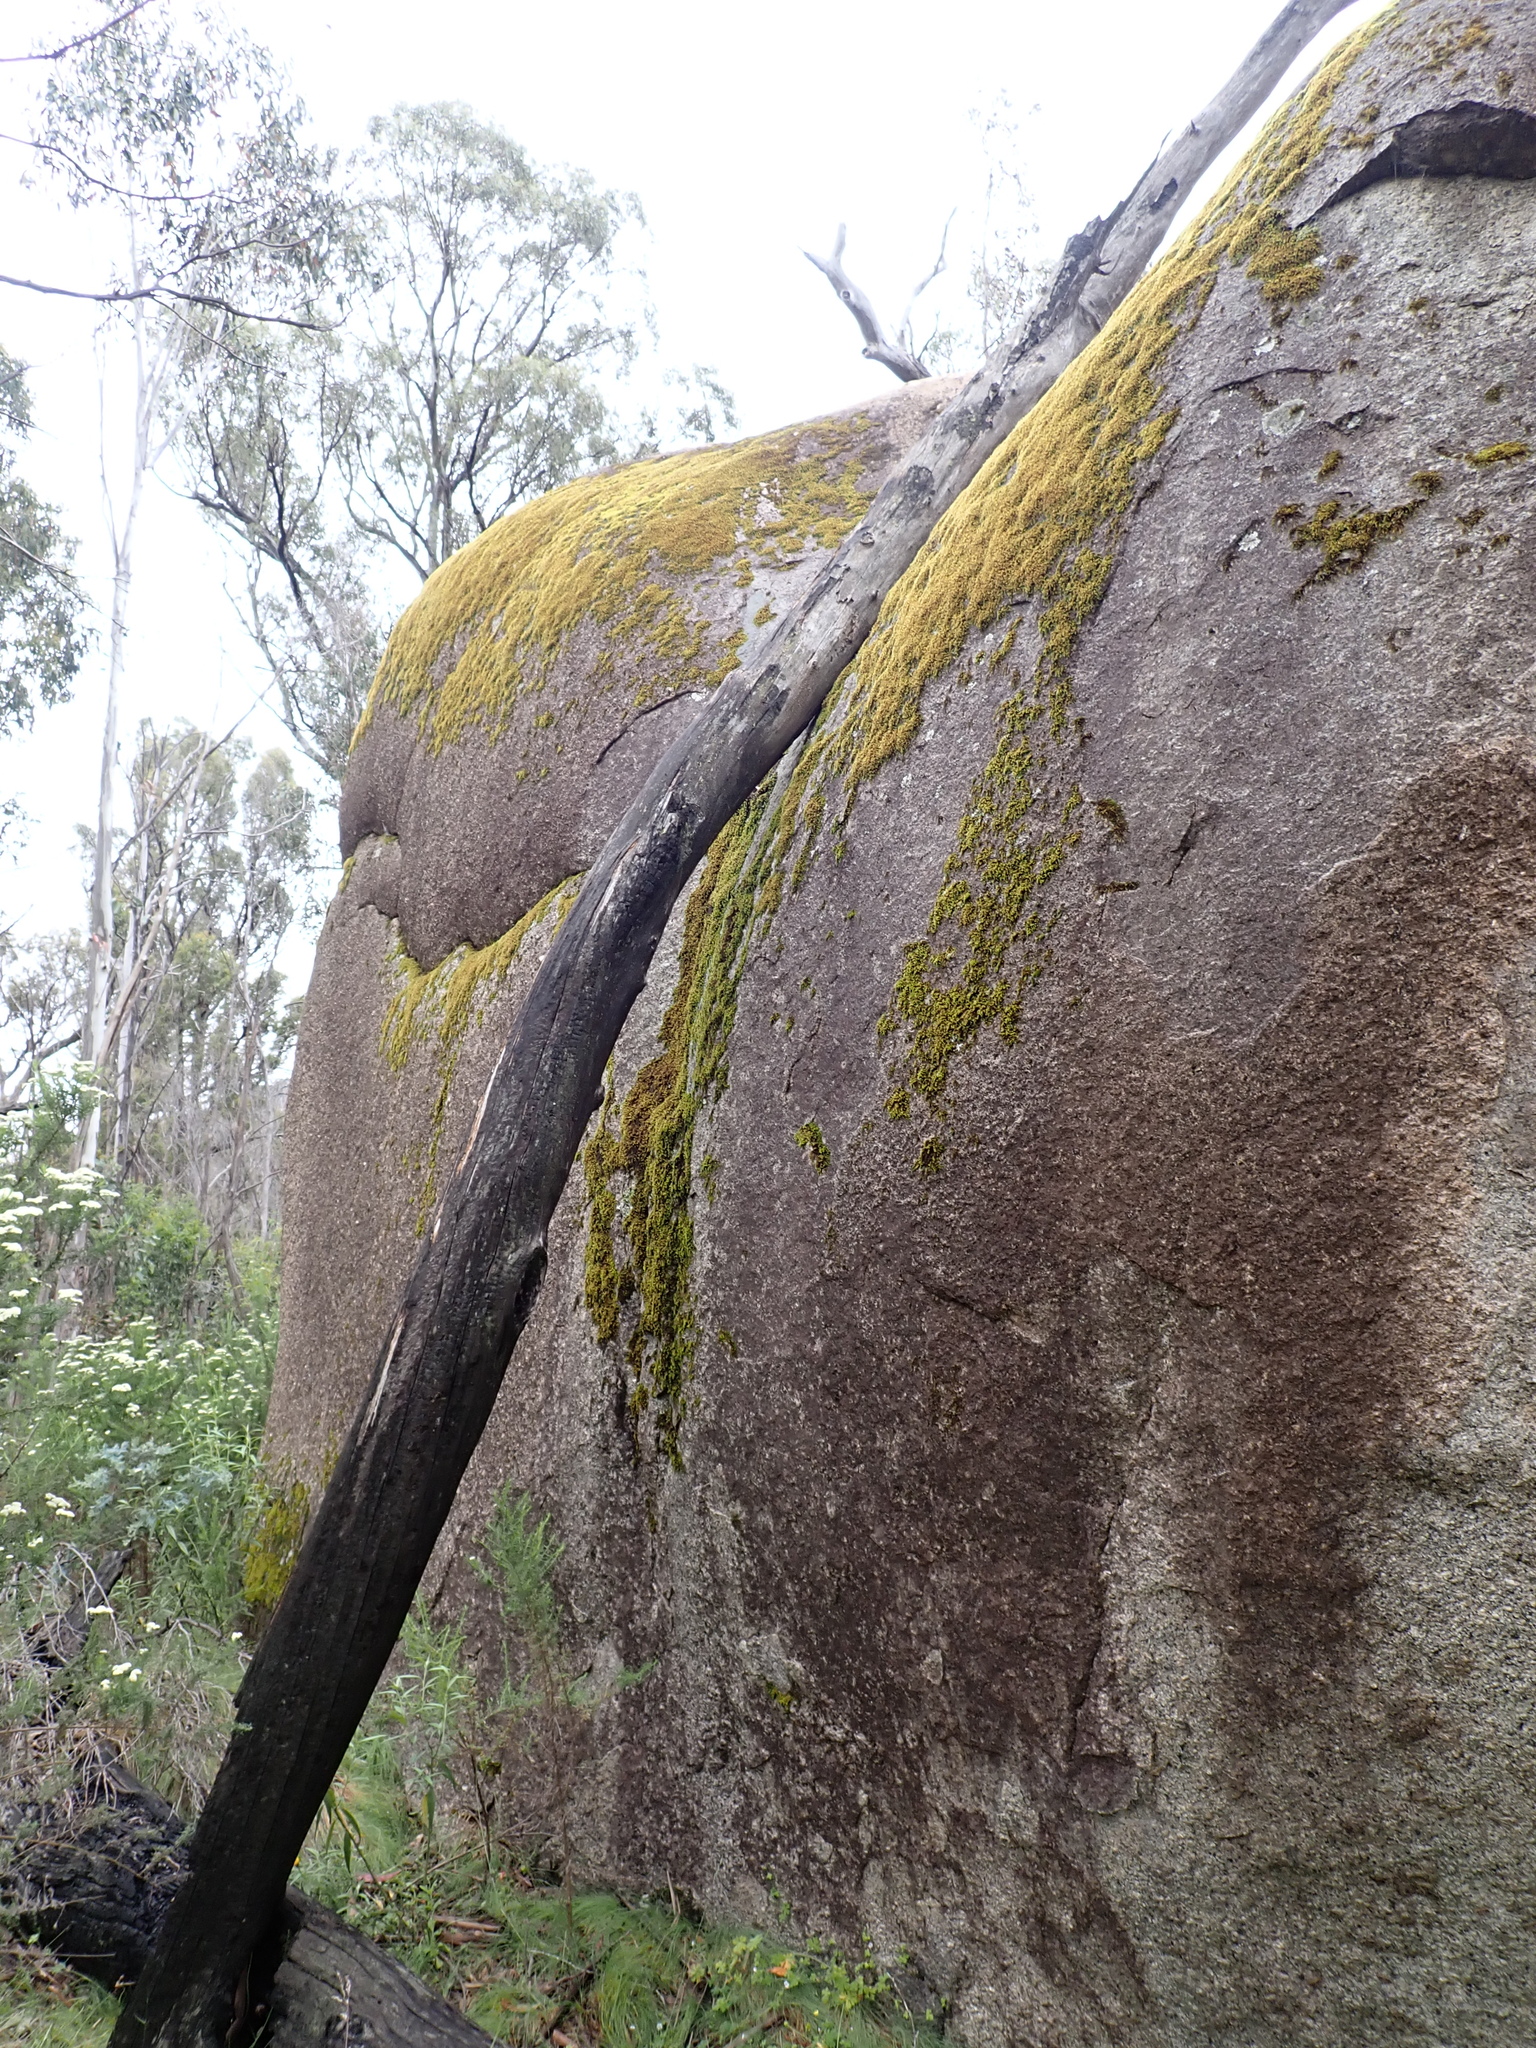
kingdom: Plantae
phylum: Bryophyta
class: Bryopsida
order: Hedwigiales
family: Hedwigiaceae
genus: Hedwigidium
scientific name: Hedwigidium imberbe
